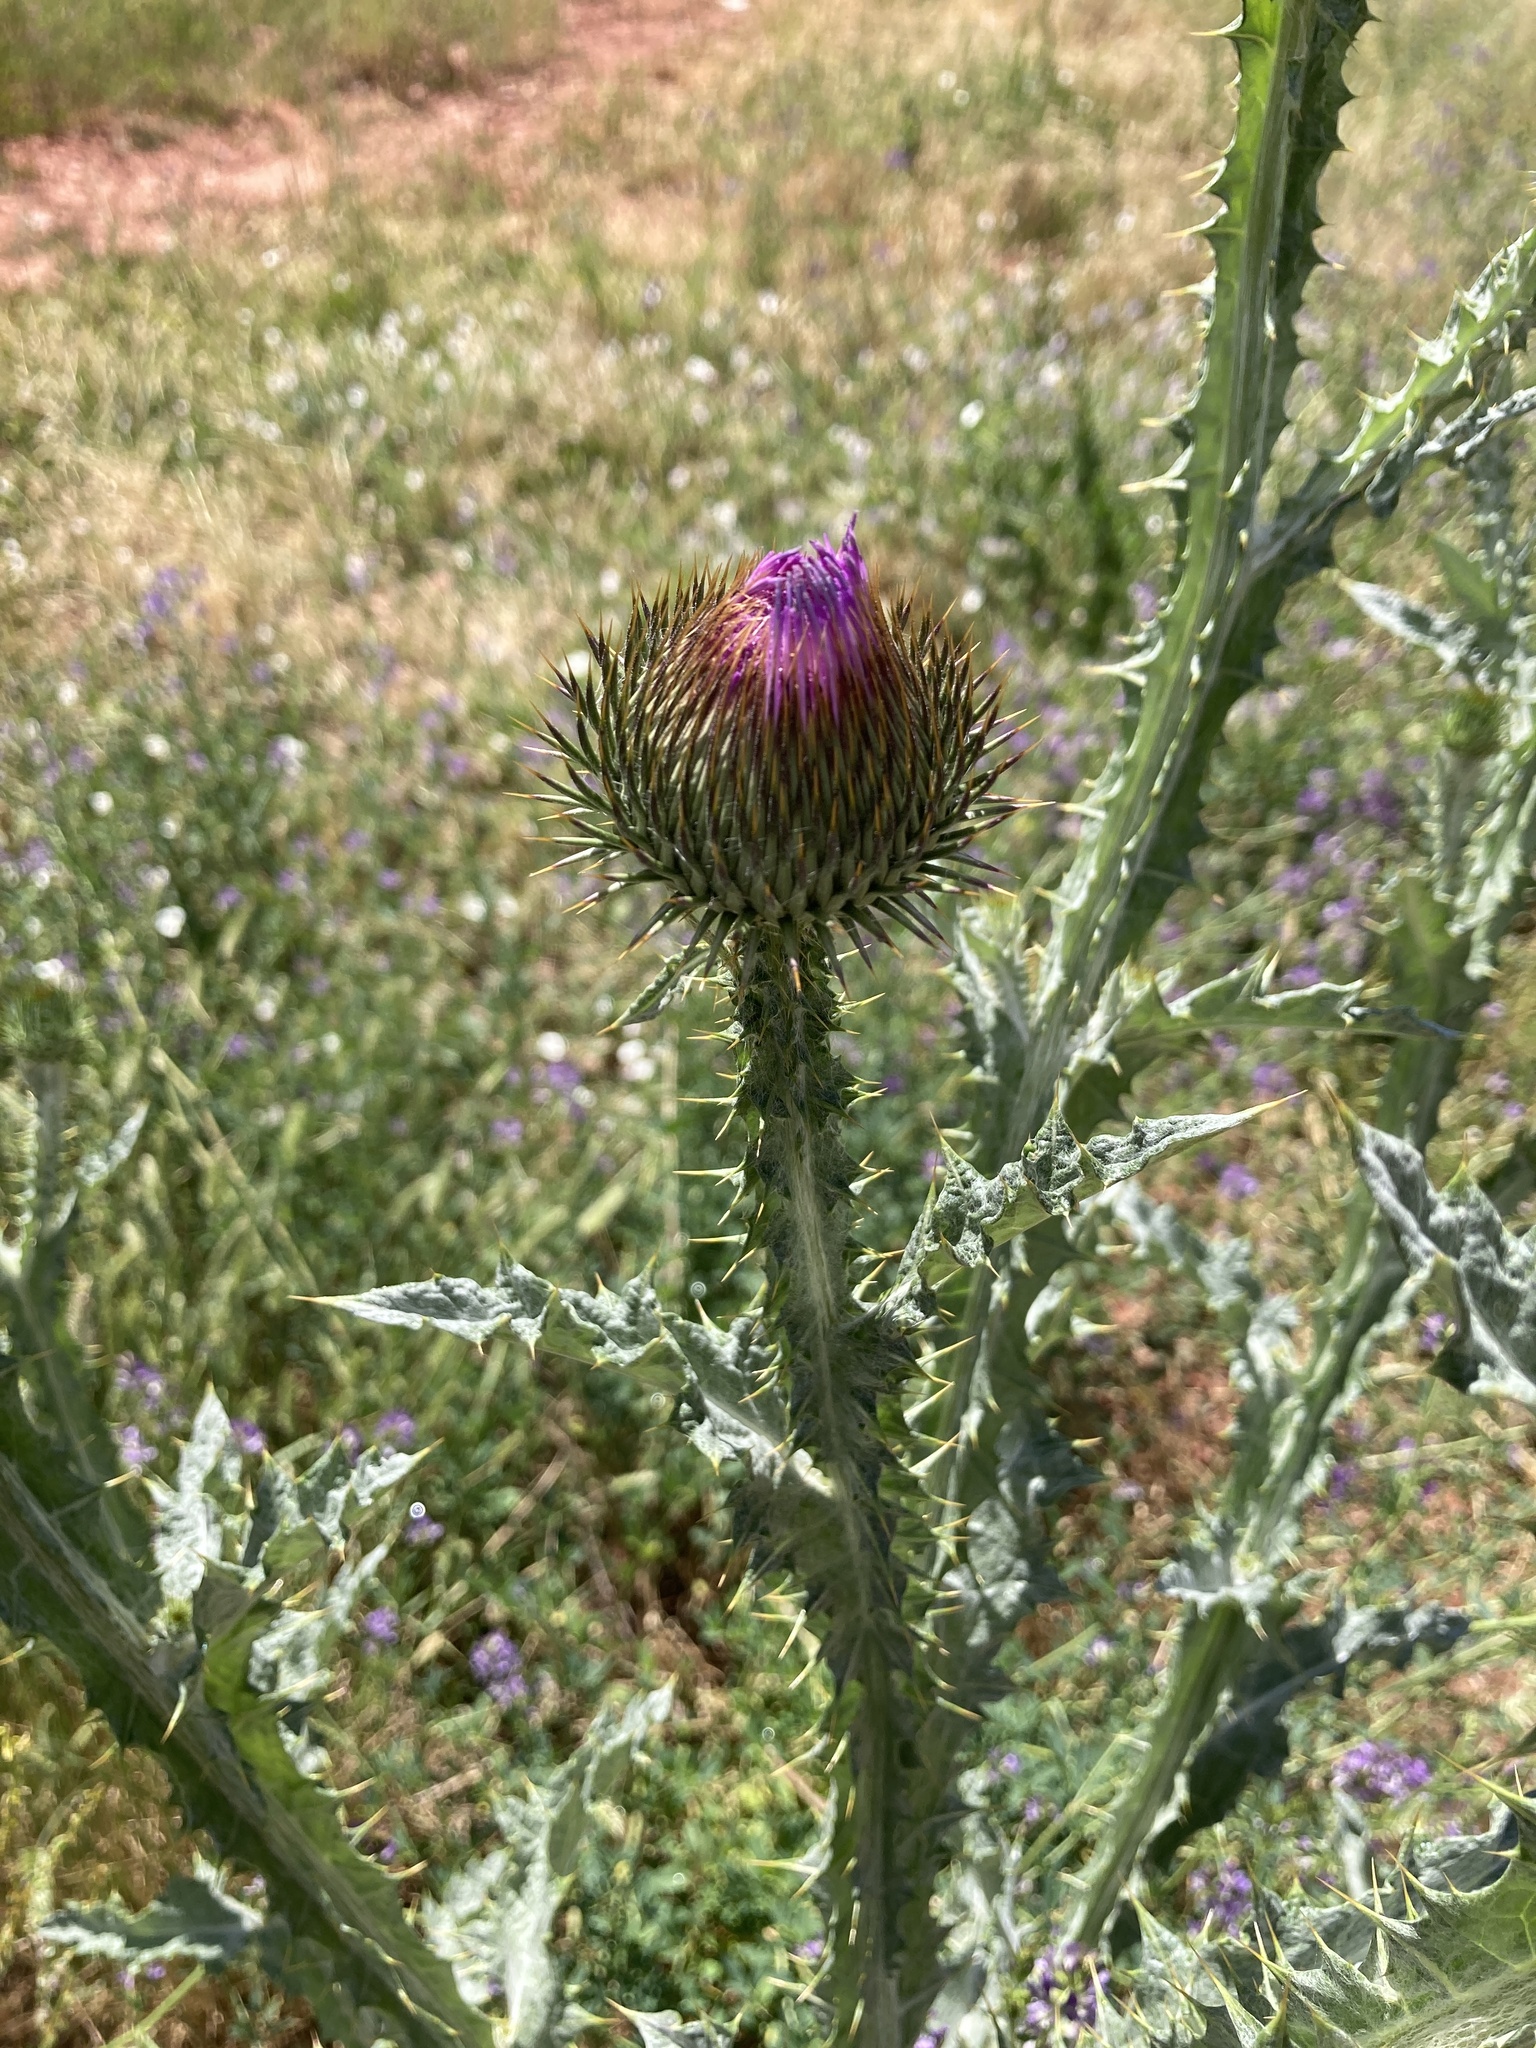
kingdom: Plantae
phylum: Tracheophyta
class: Magnoliopsida
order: Asterales
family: Asteraceae
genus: Onopordum
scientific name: Onopordum acanthium
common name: Scotch thistle
